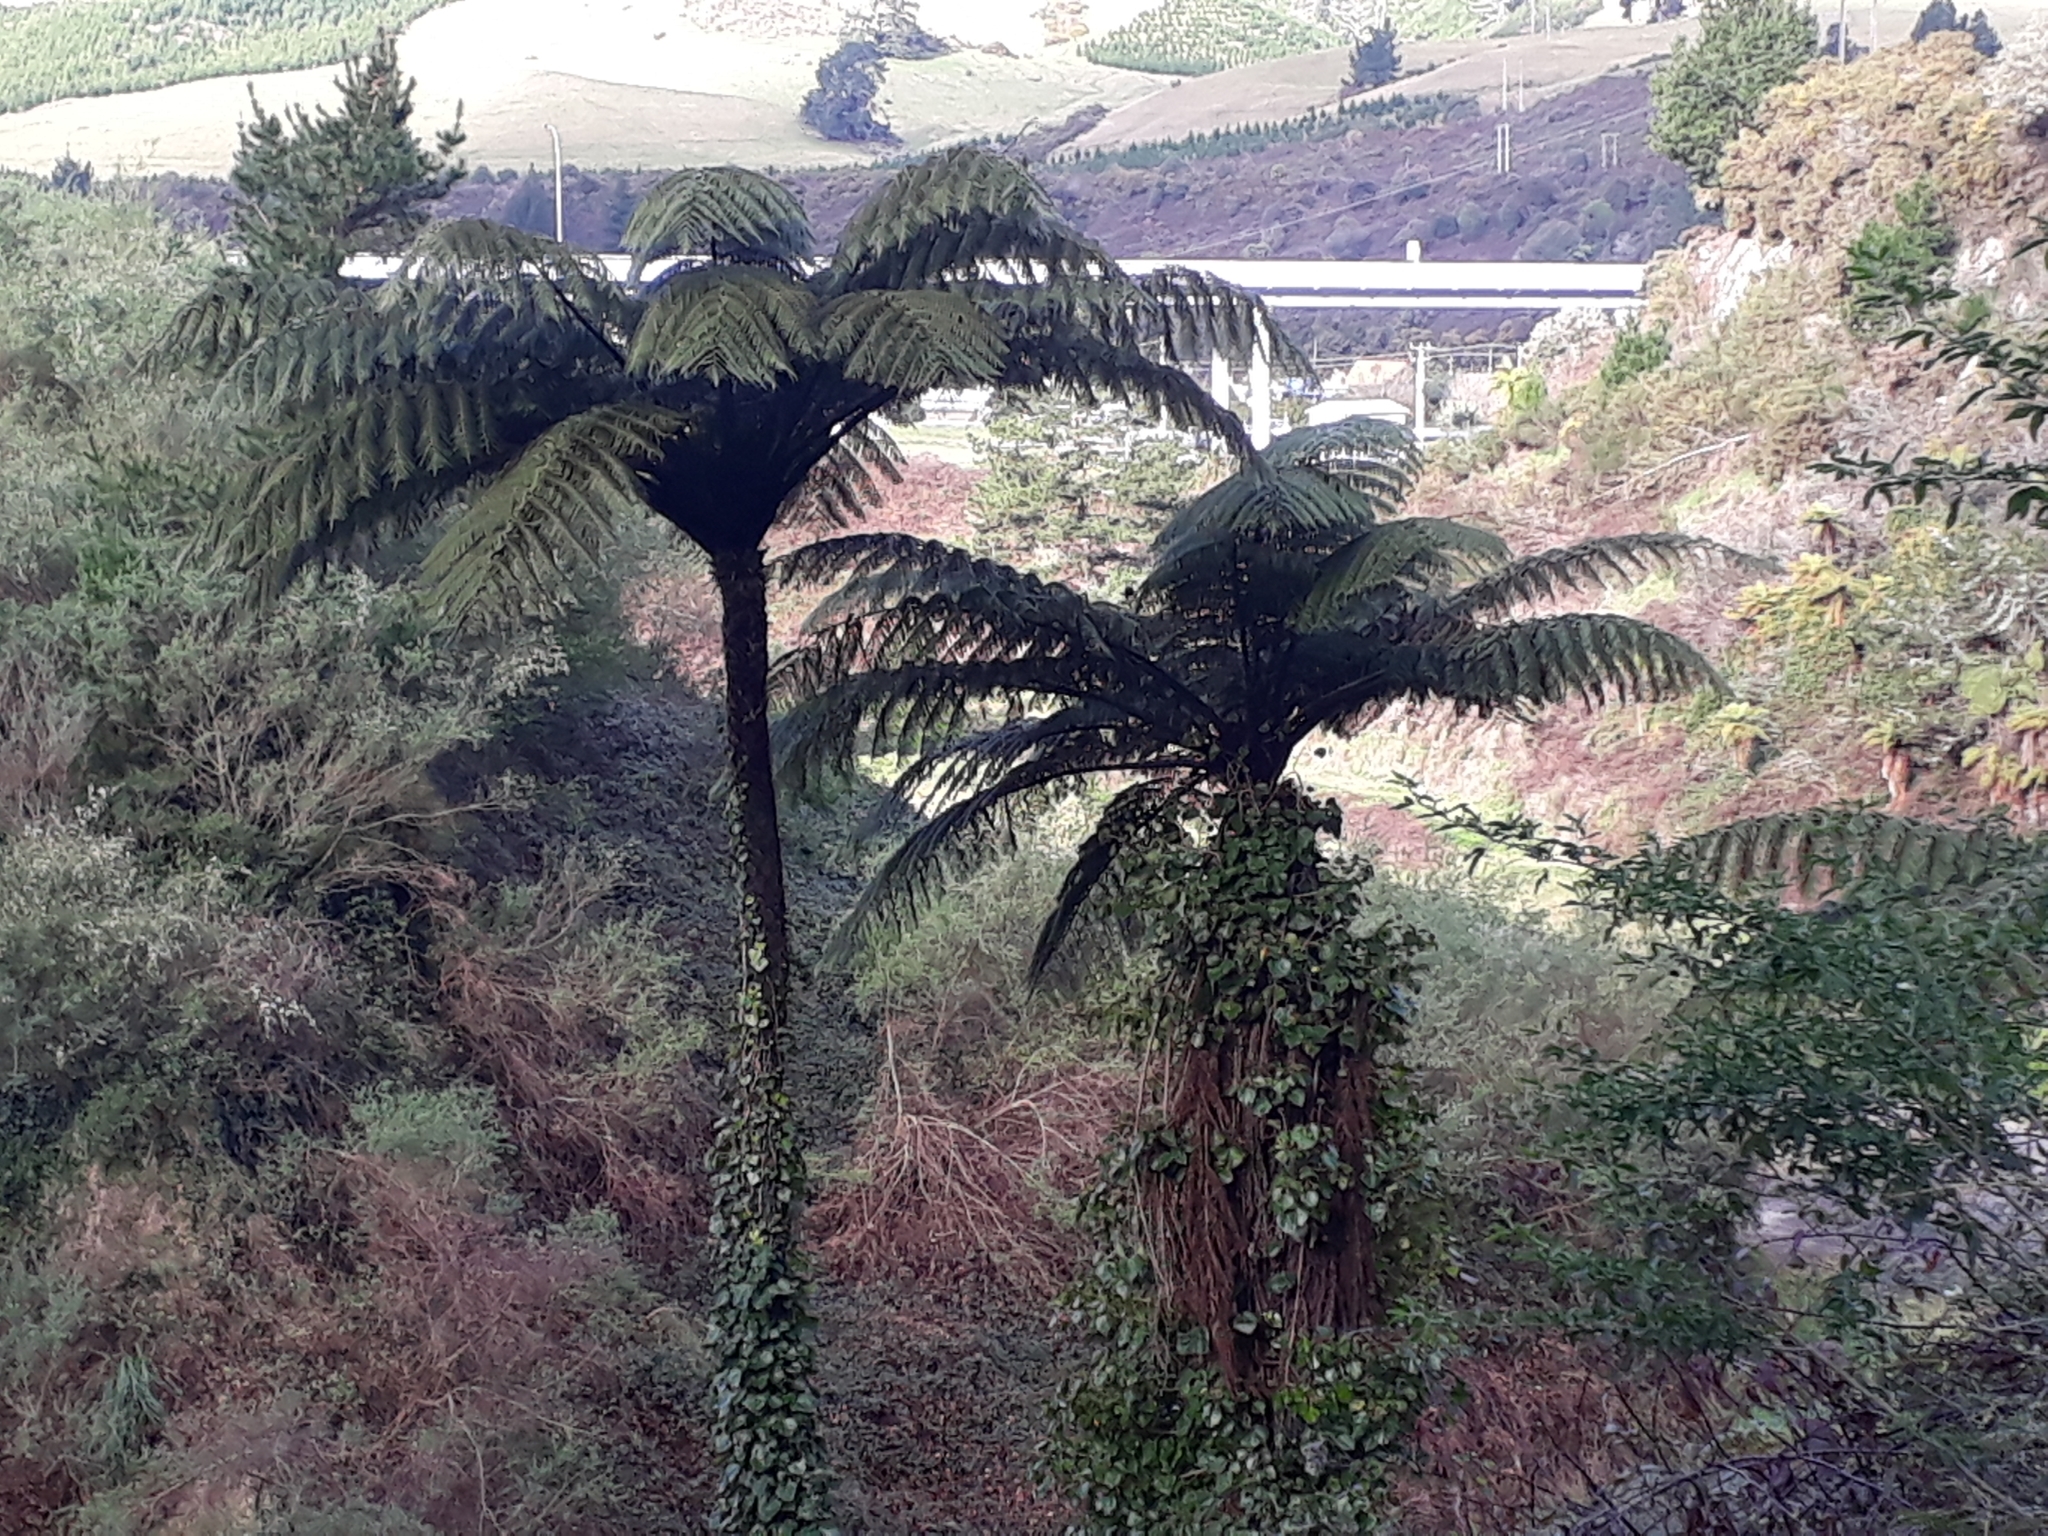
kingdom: Plantae
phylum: Tracheophyta
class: Polypodiopsida
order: Cyatheales
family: Cyatheaceae
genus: Sphaeropteris
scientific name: Sphaeropteris medullaris
